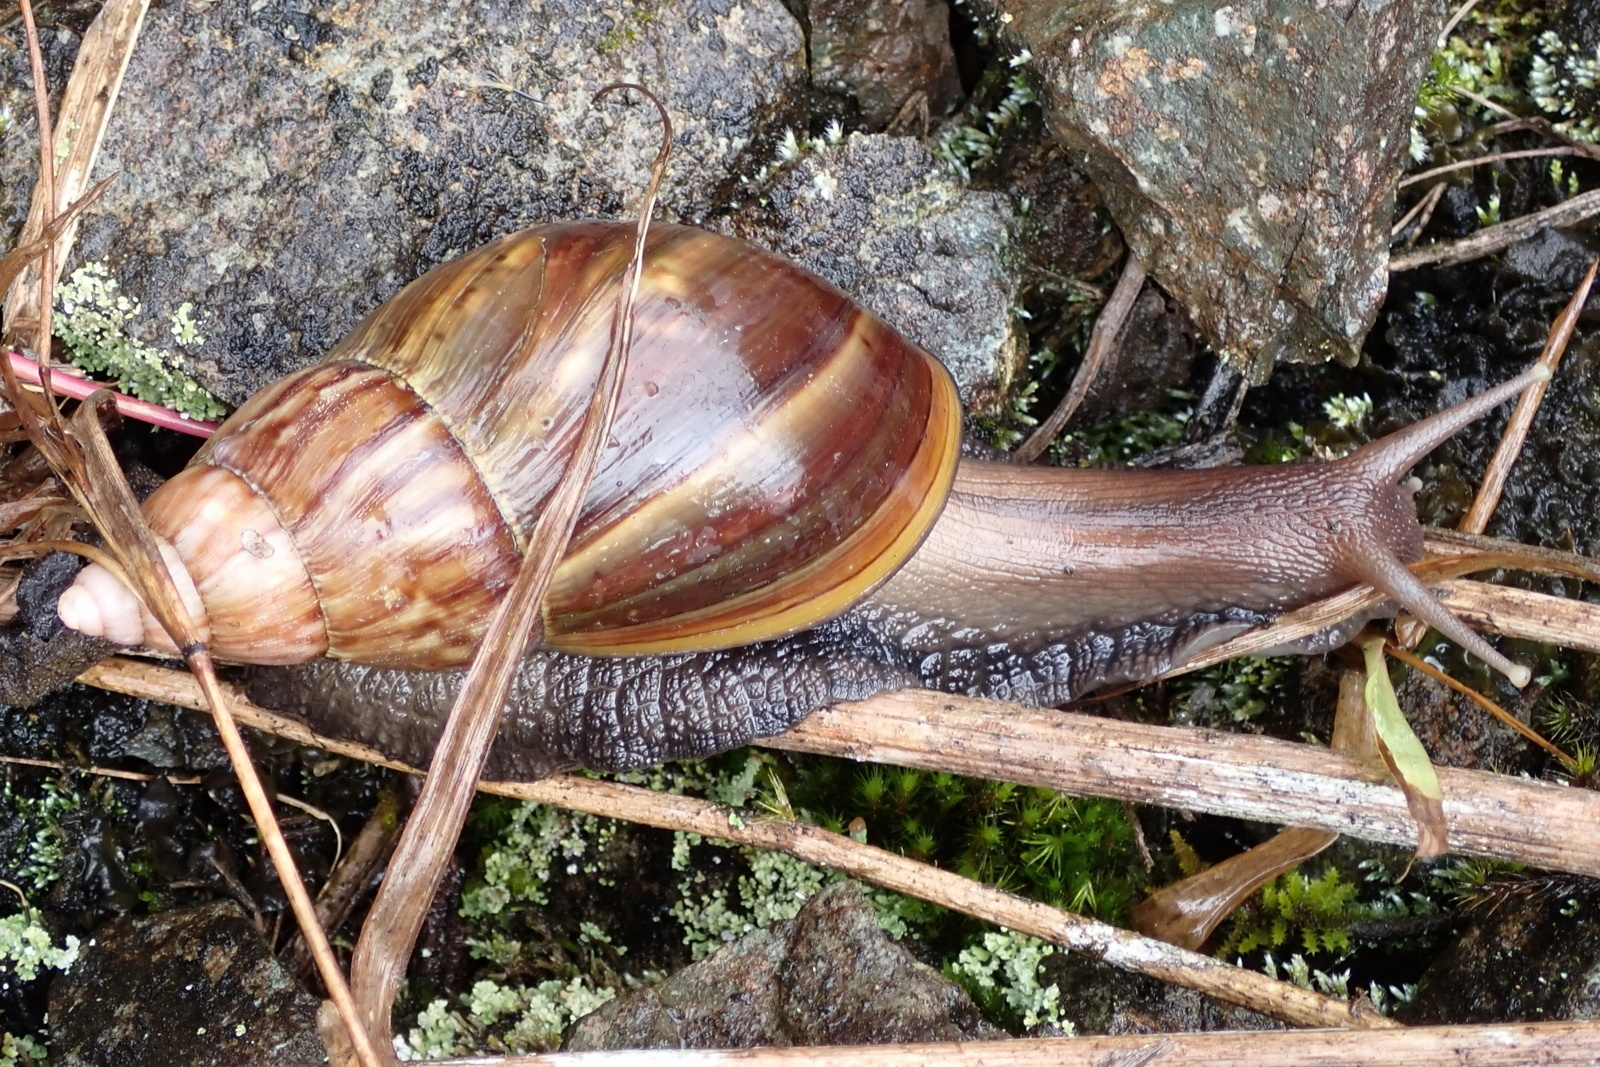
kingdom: Animalia
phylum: Mollusca
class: Gastropoda
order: Stylommatophora
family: Achatinidae
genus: Lissachatina
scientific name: Lissachatina fulica
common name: Giant african snail
